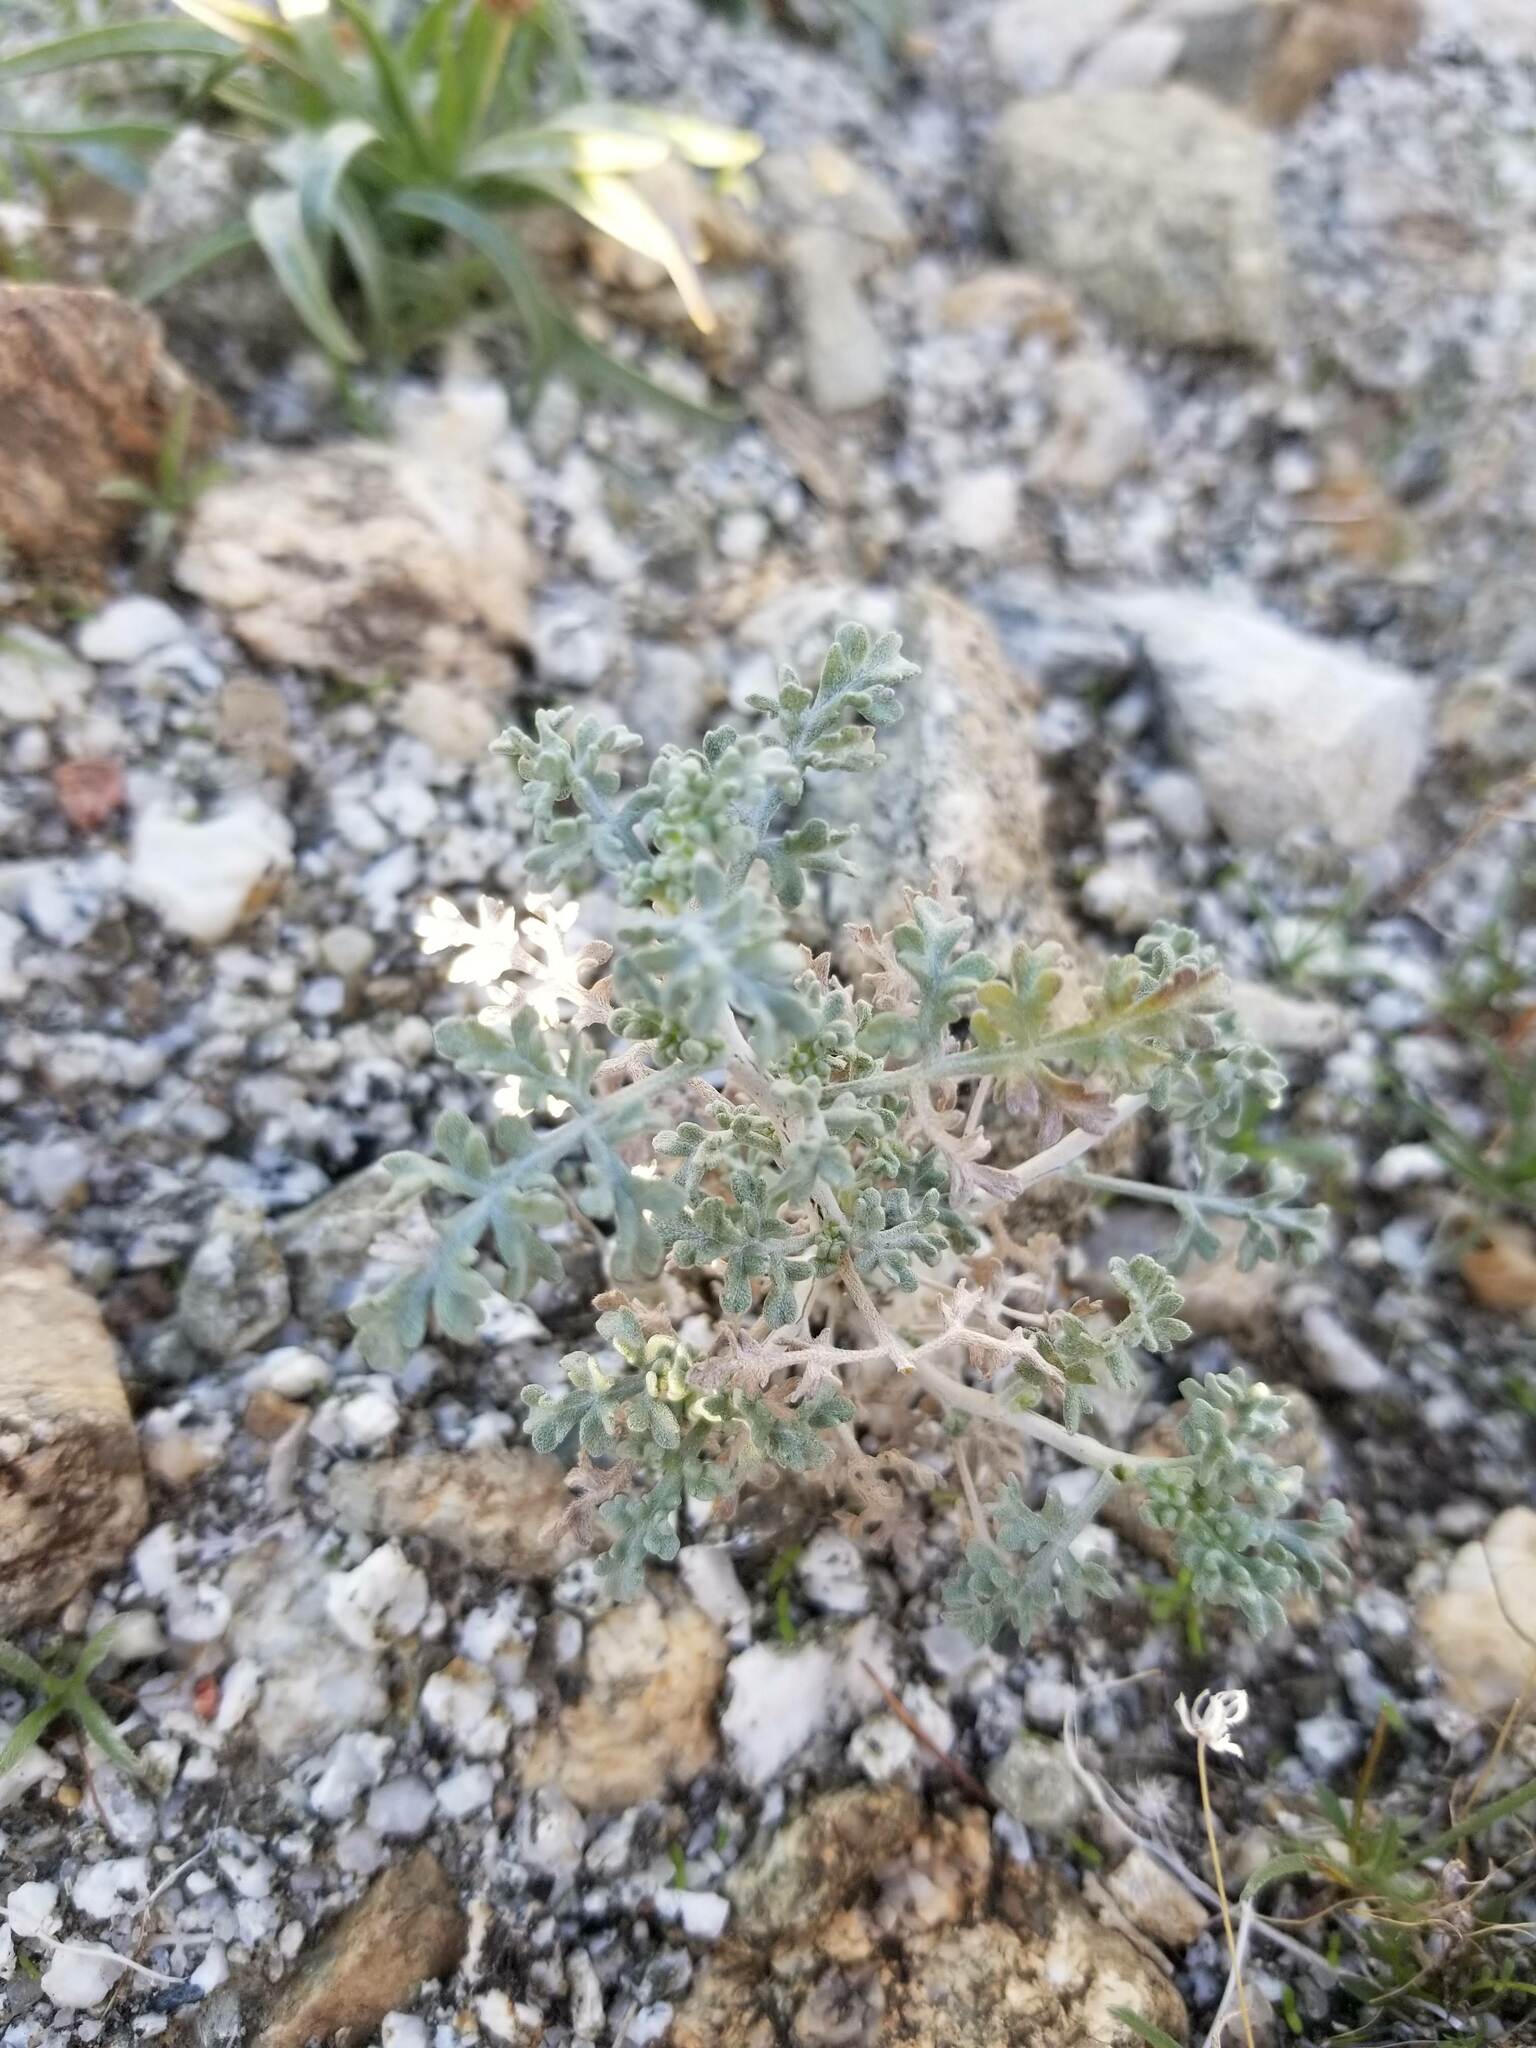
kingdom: Plantae
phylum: Tracheophyta
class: Magnoliopsida
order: Asterales
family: Asteraceae
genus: Ambrosia
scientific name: Ambrosia dumosa
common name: Bur-sage
